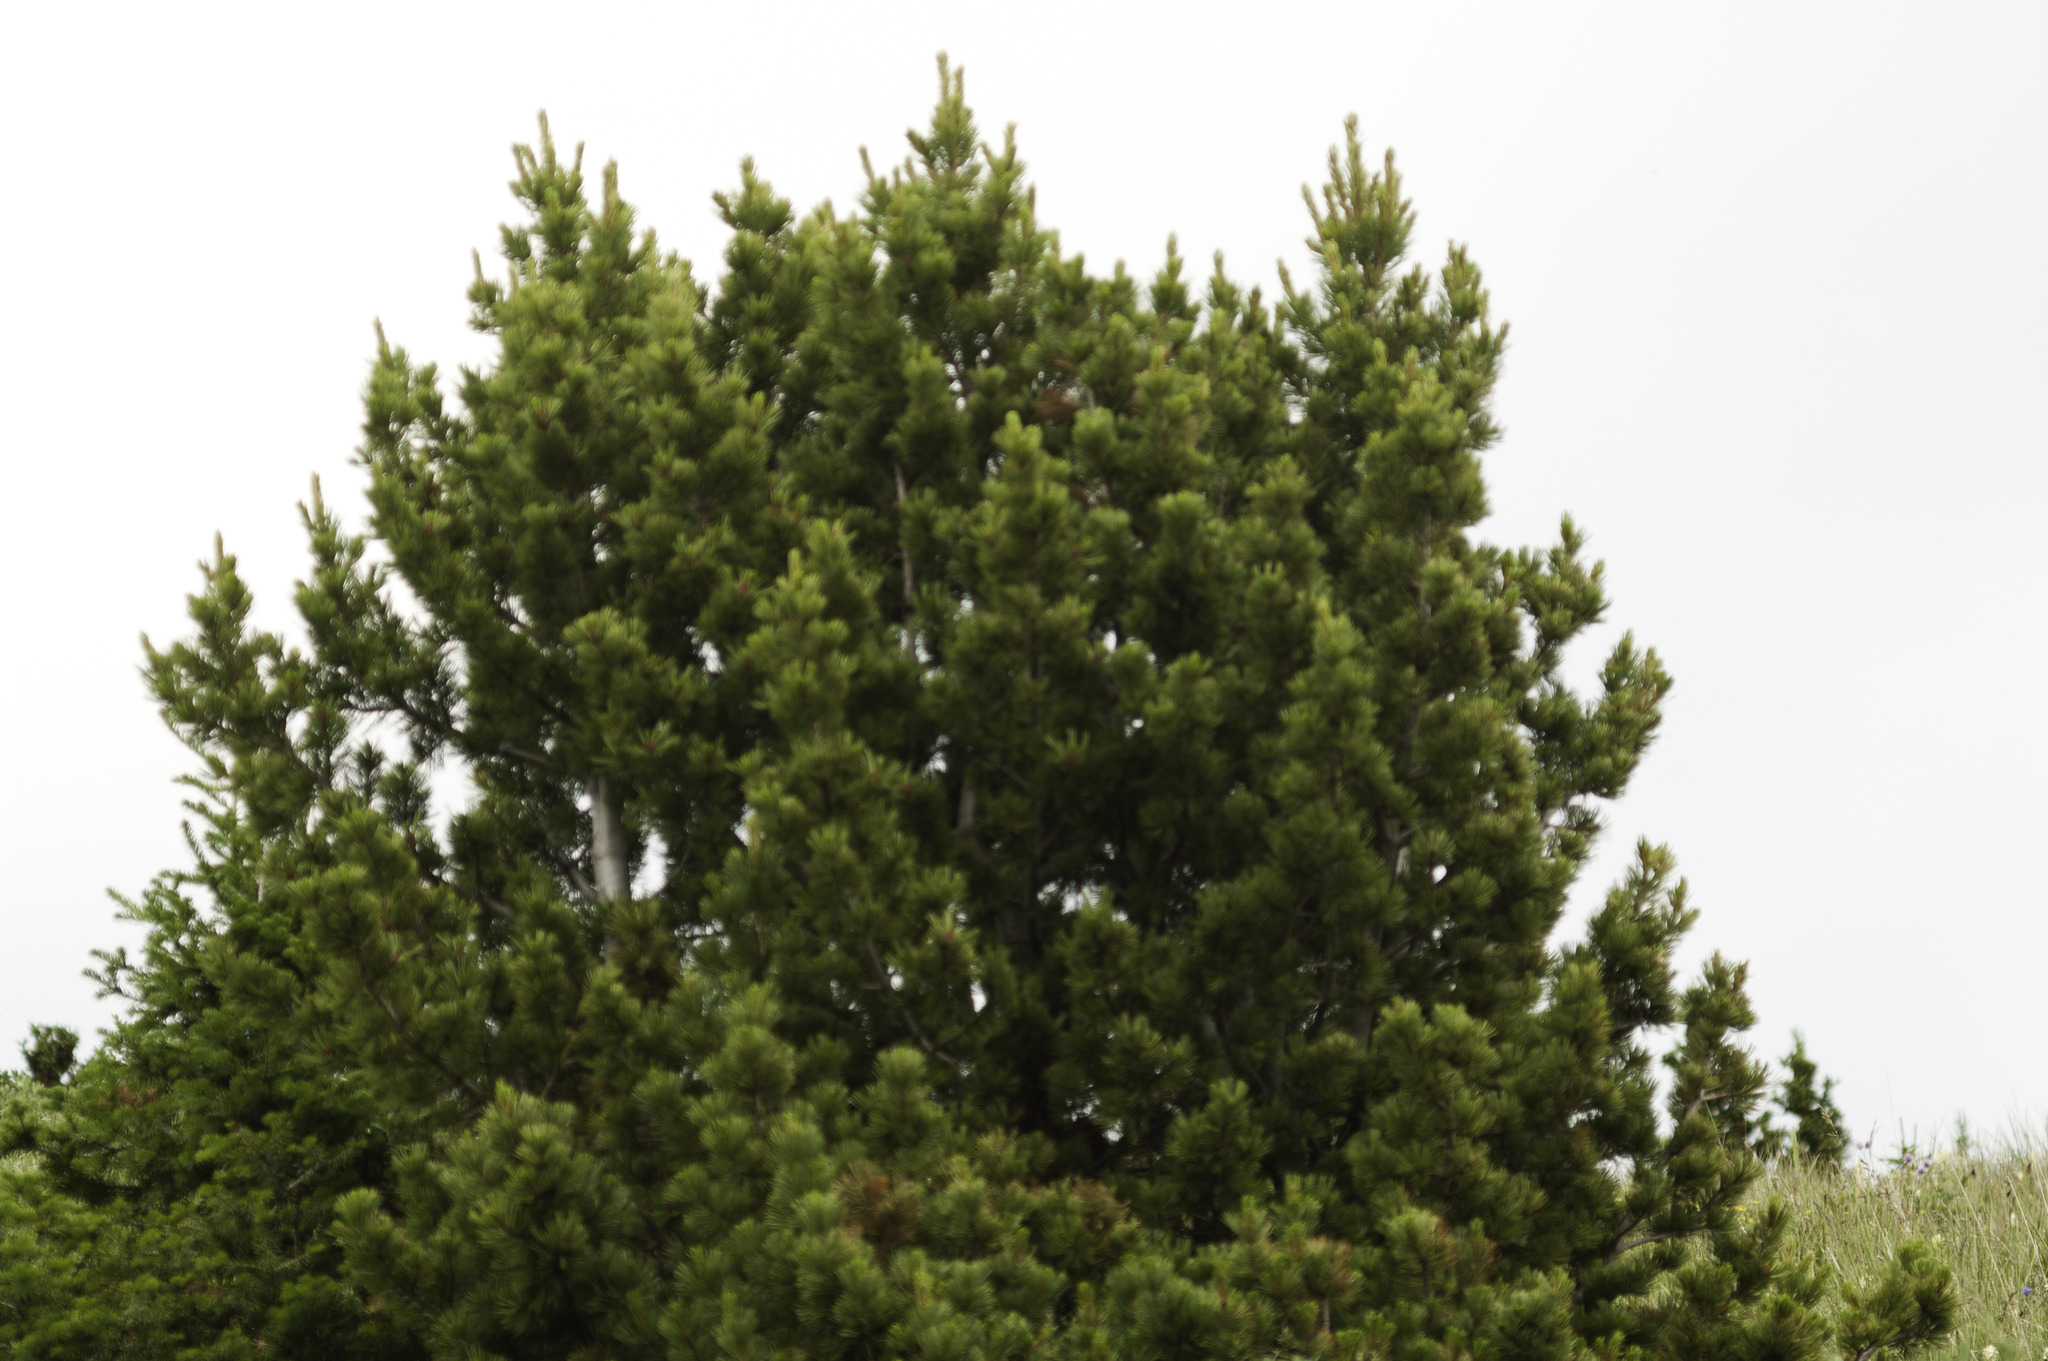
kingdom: Plantae
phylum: Tracheophyta
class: Pinopsida
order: Pinales
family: Pinaceae
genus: Pinus
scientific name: Pinus albicaulis
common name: Whitebark pine
